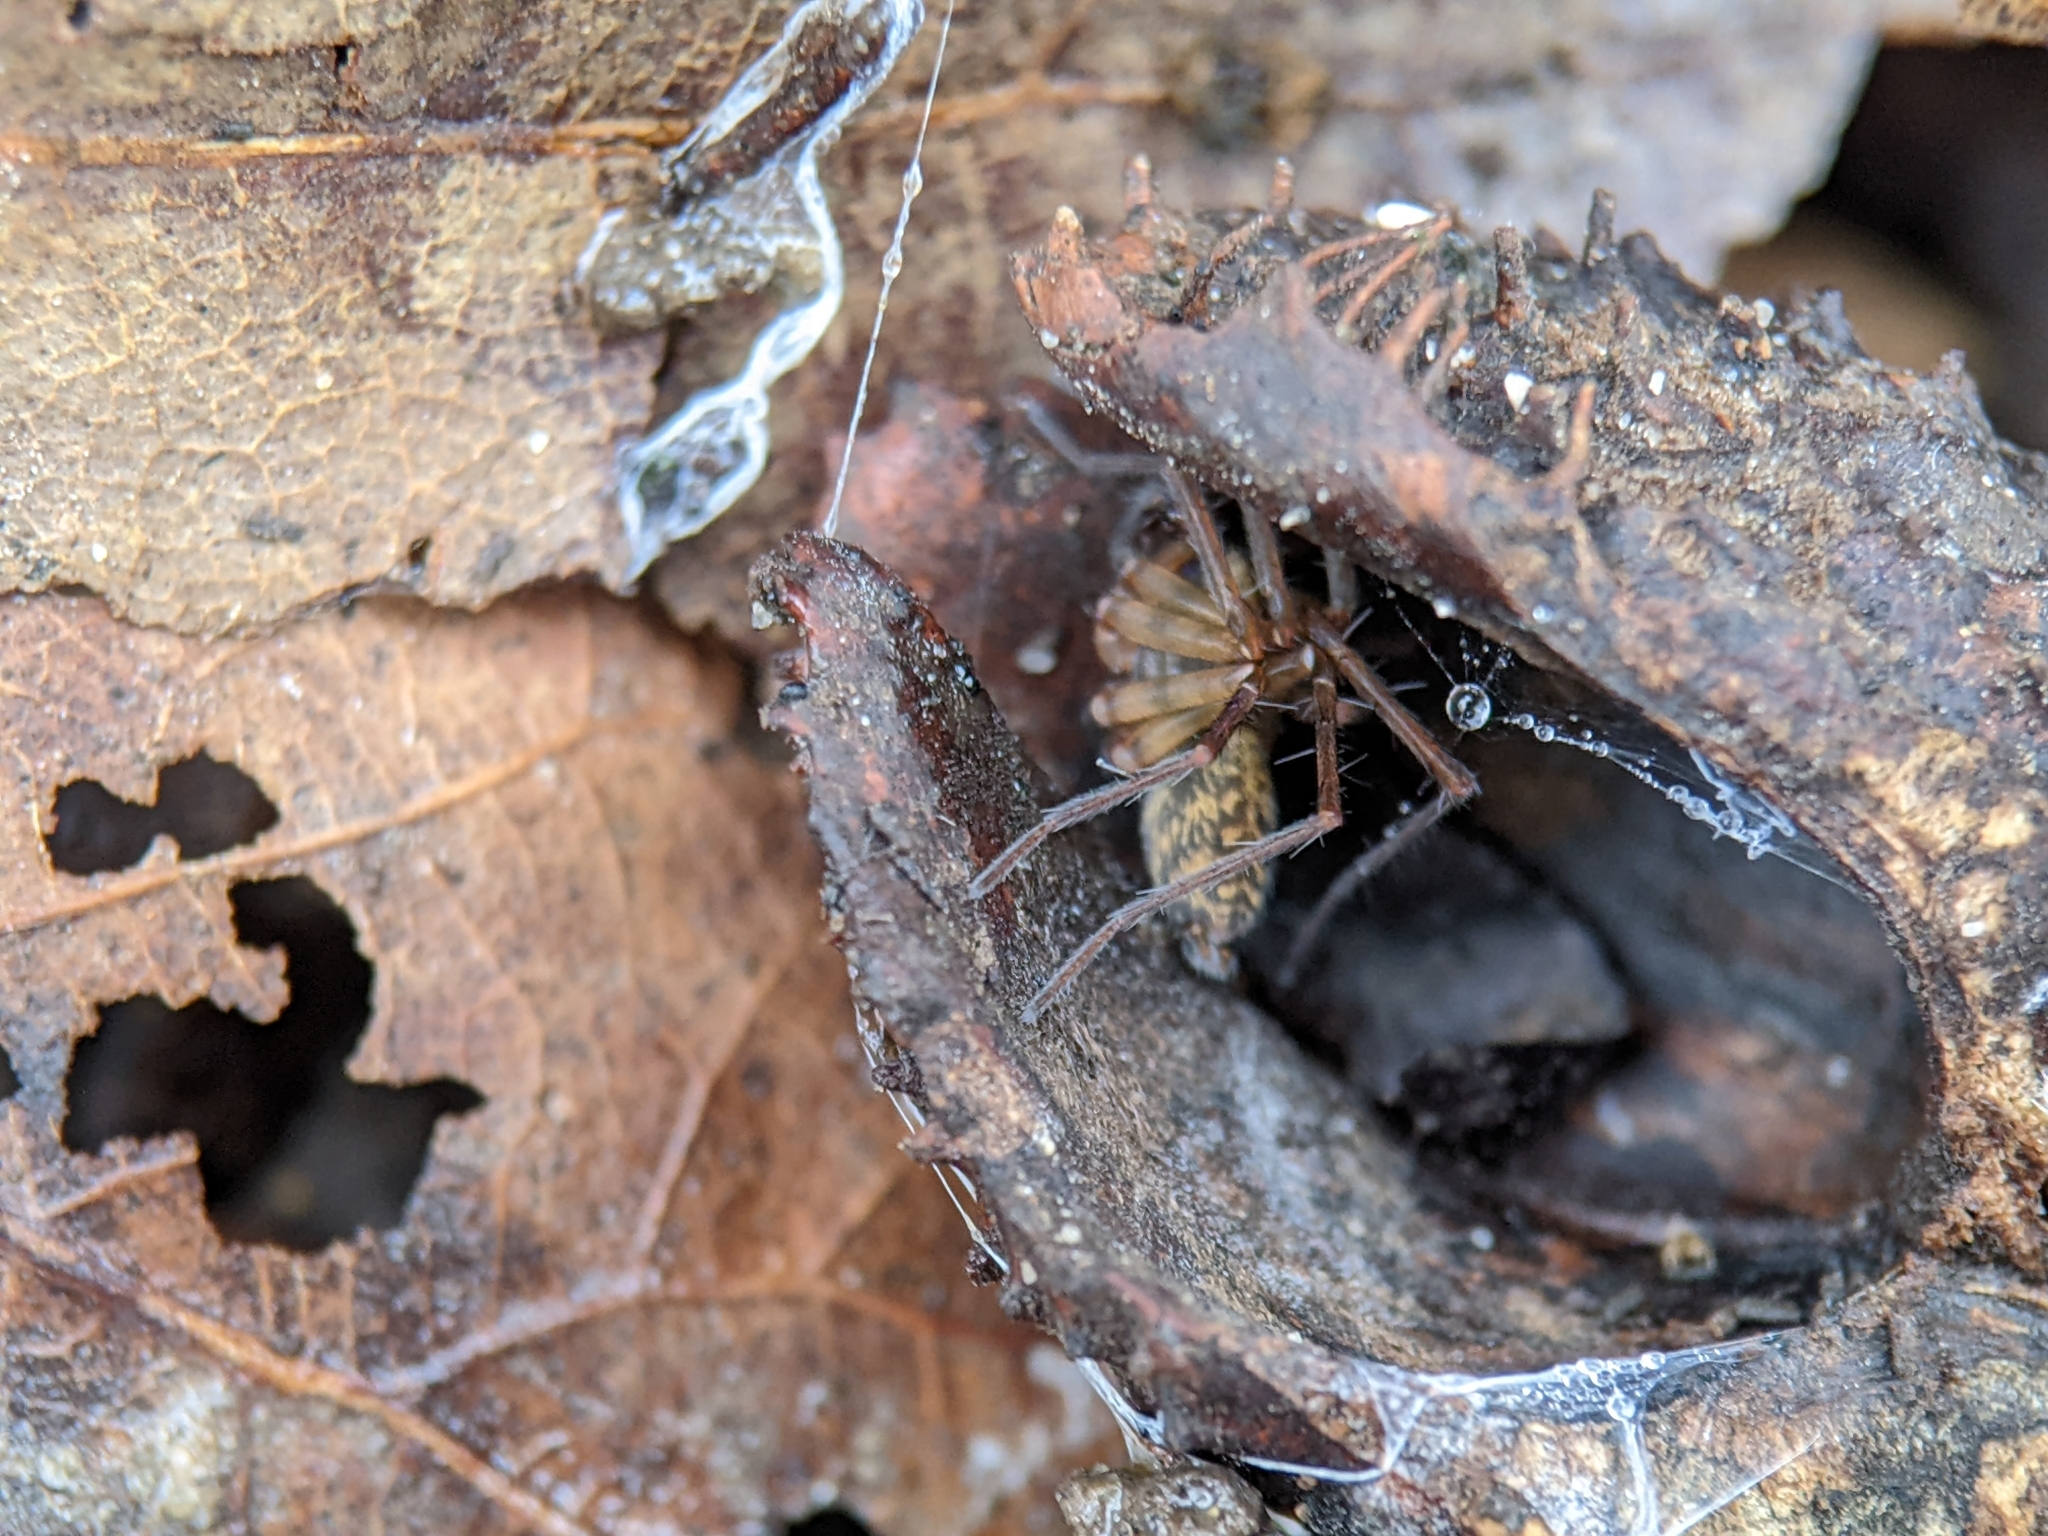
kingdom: Animalia
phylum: Arthropoda
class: Arachnida
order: Araneae
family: Agelenidae
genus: Histopona
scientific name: Histopona torpida
